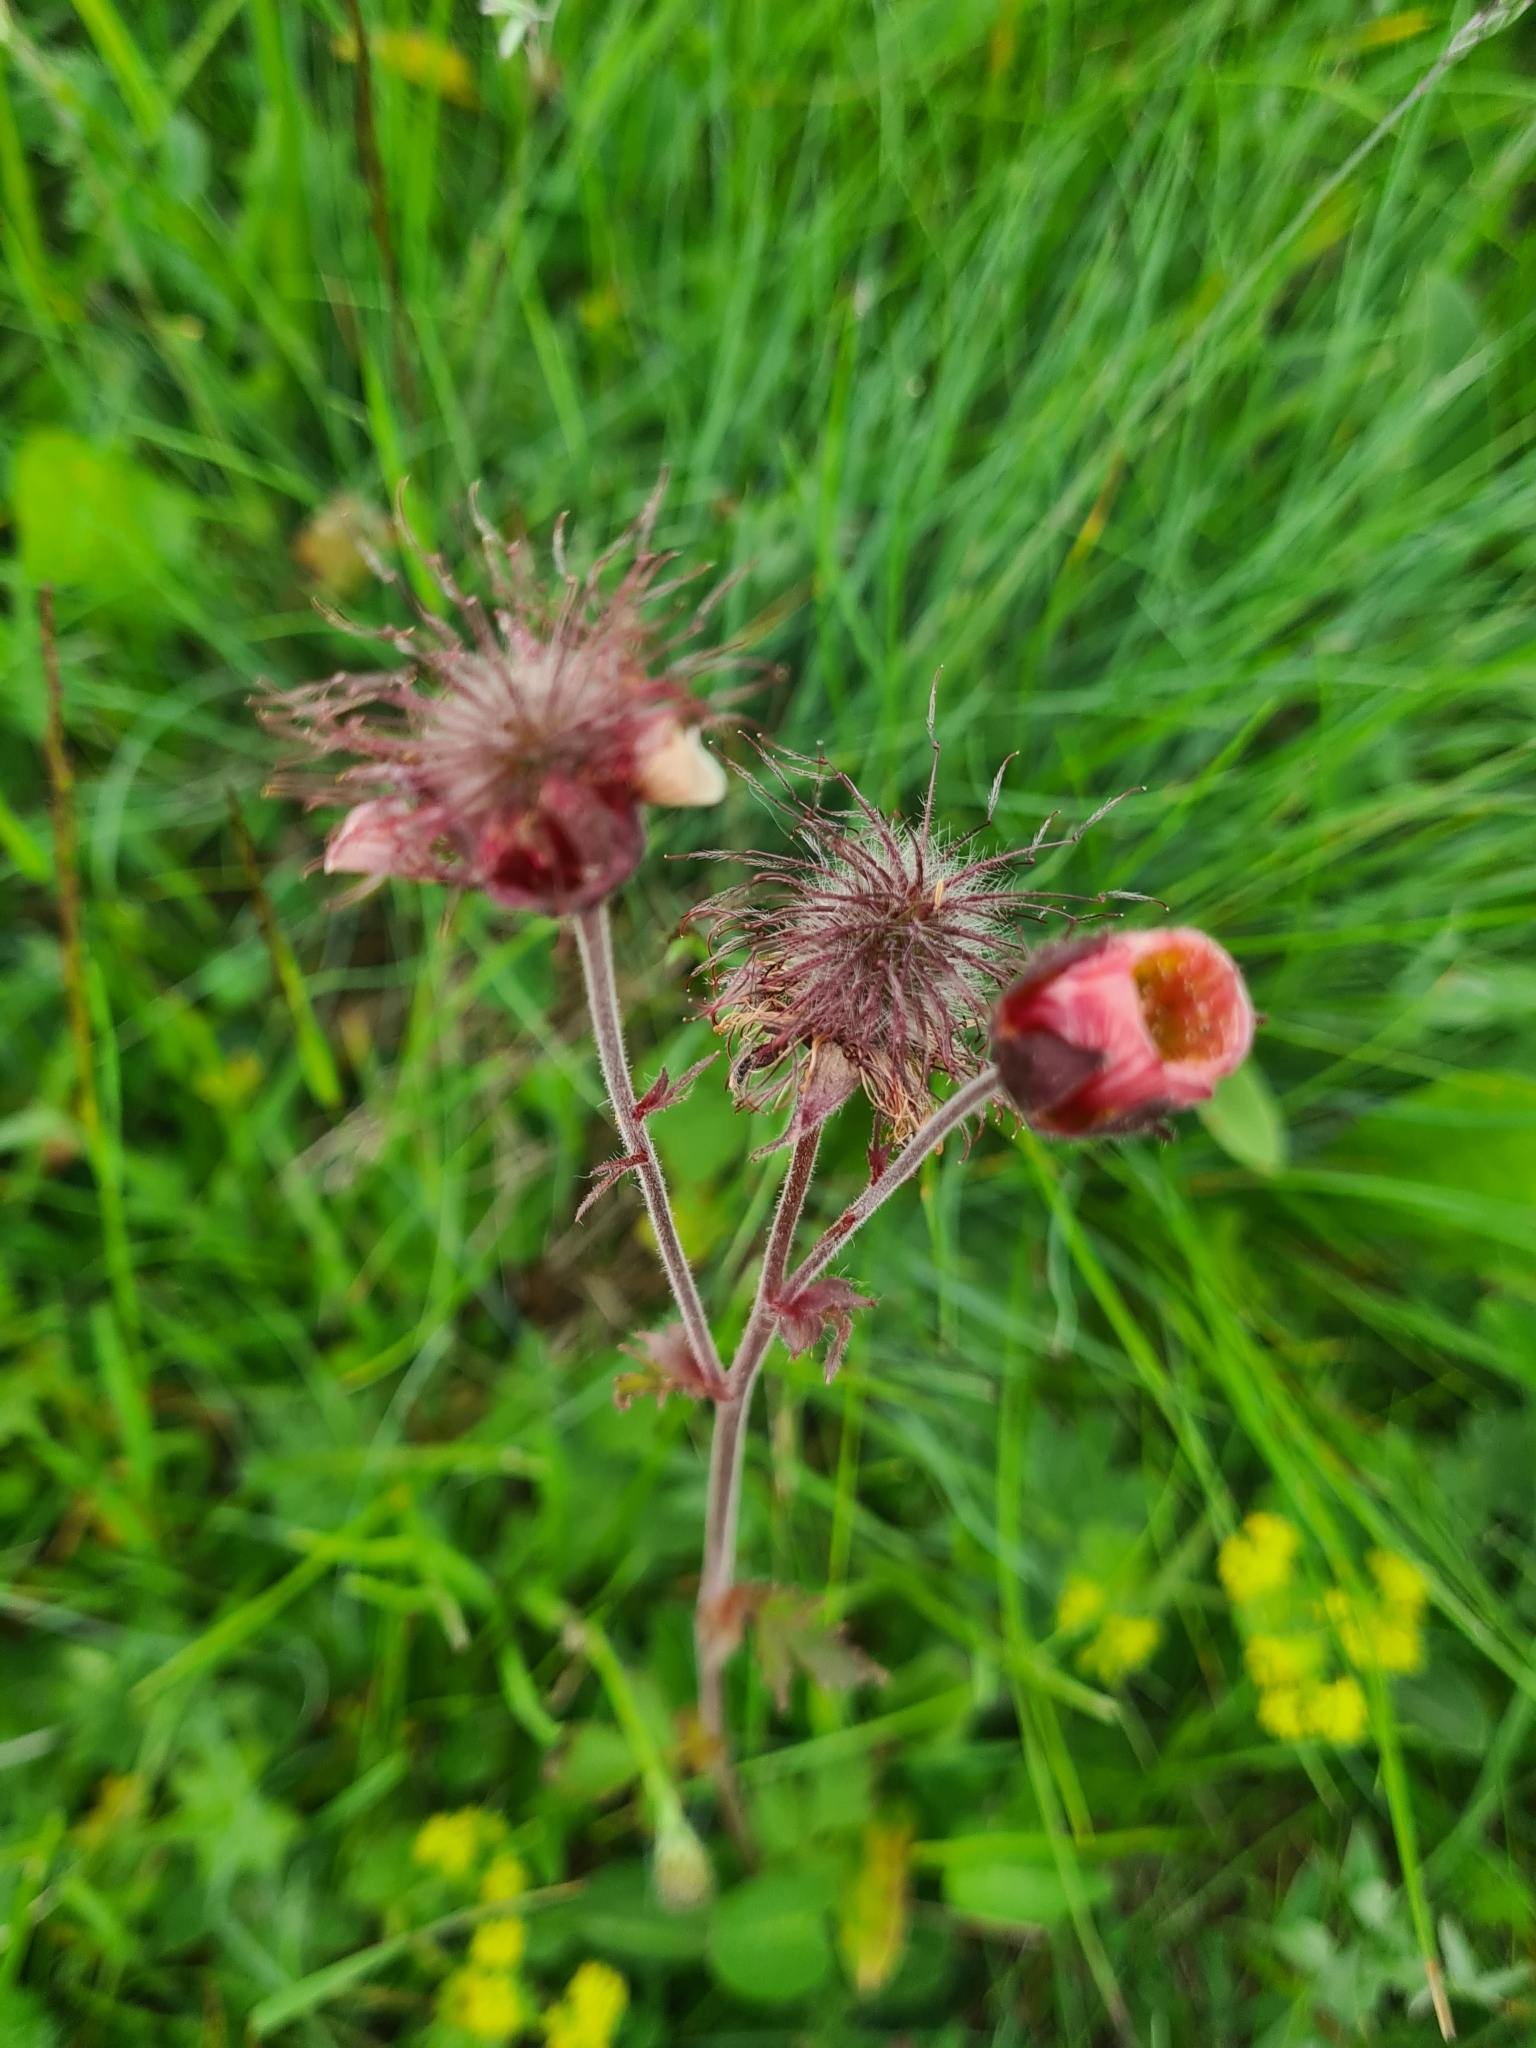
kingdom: Plantae
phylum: Tracheophyta
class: Magnoliopsida
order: Rosales
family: Rosaceae
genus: Geum
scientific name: Geum rivale
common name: Water avens
